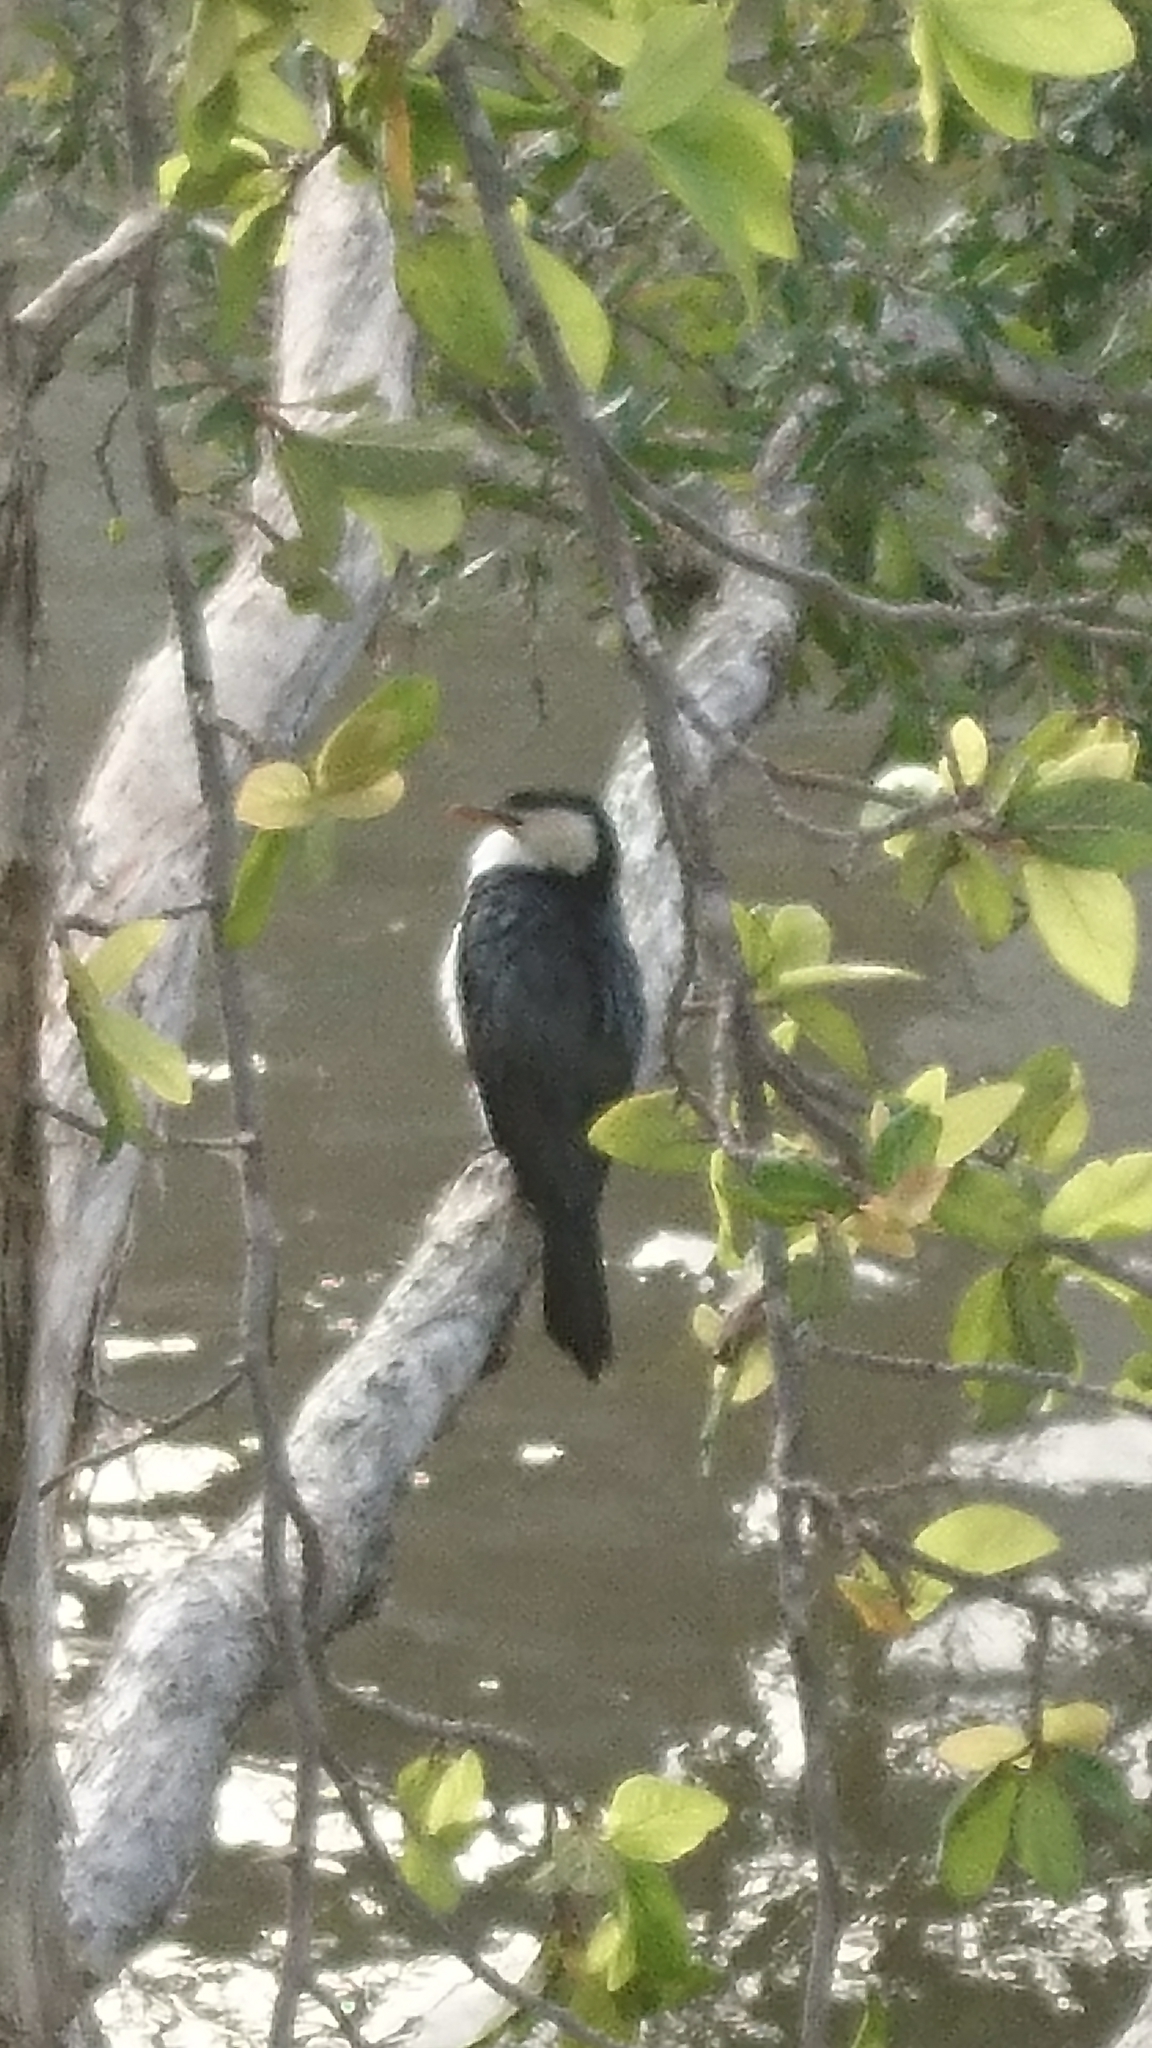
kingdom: Animalia
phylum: Chordata
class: Aves
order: Suliformes
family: Phalacrocoracidae
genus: Microcarbo
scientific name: Microcarbo melanoleucos
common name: Little pied cormorant
